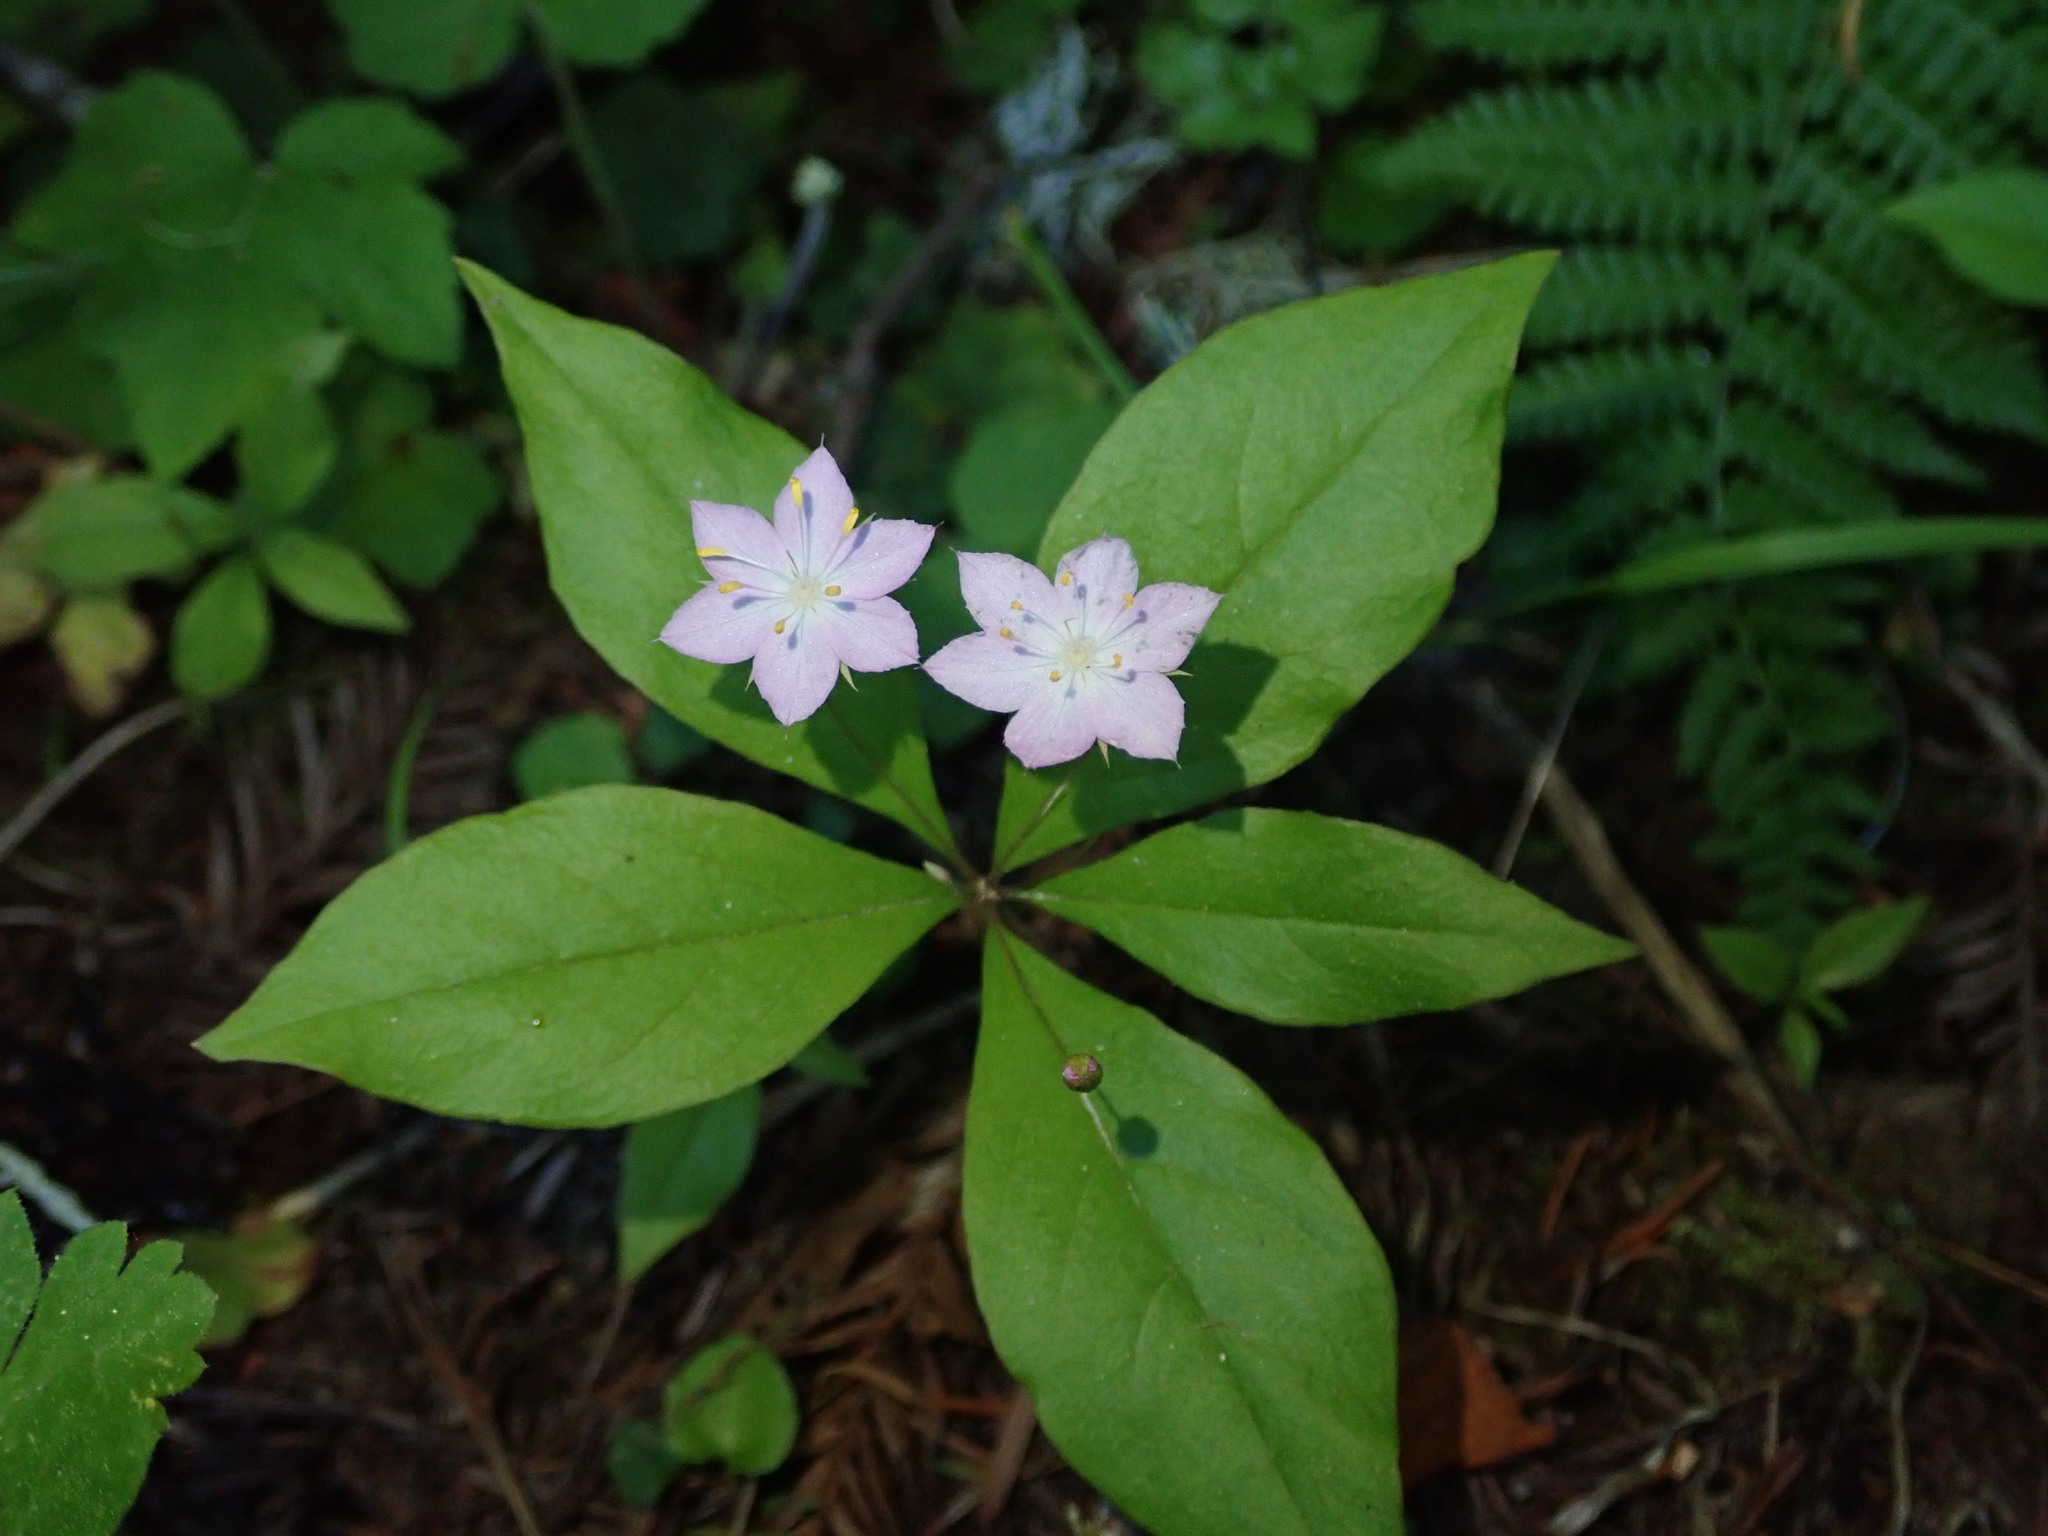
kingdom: Plantae
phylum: Tracheophyta
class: Magnoliopsida
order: Ericales
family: Primulaceae
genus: Lysimachia
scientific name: Lysimachia latifolia
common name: Pacific starflower
